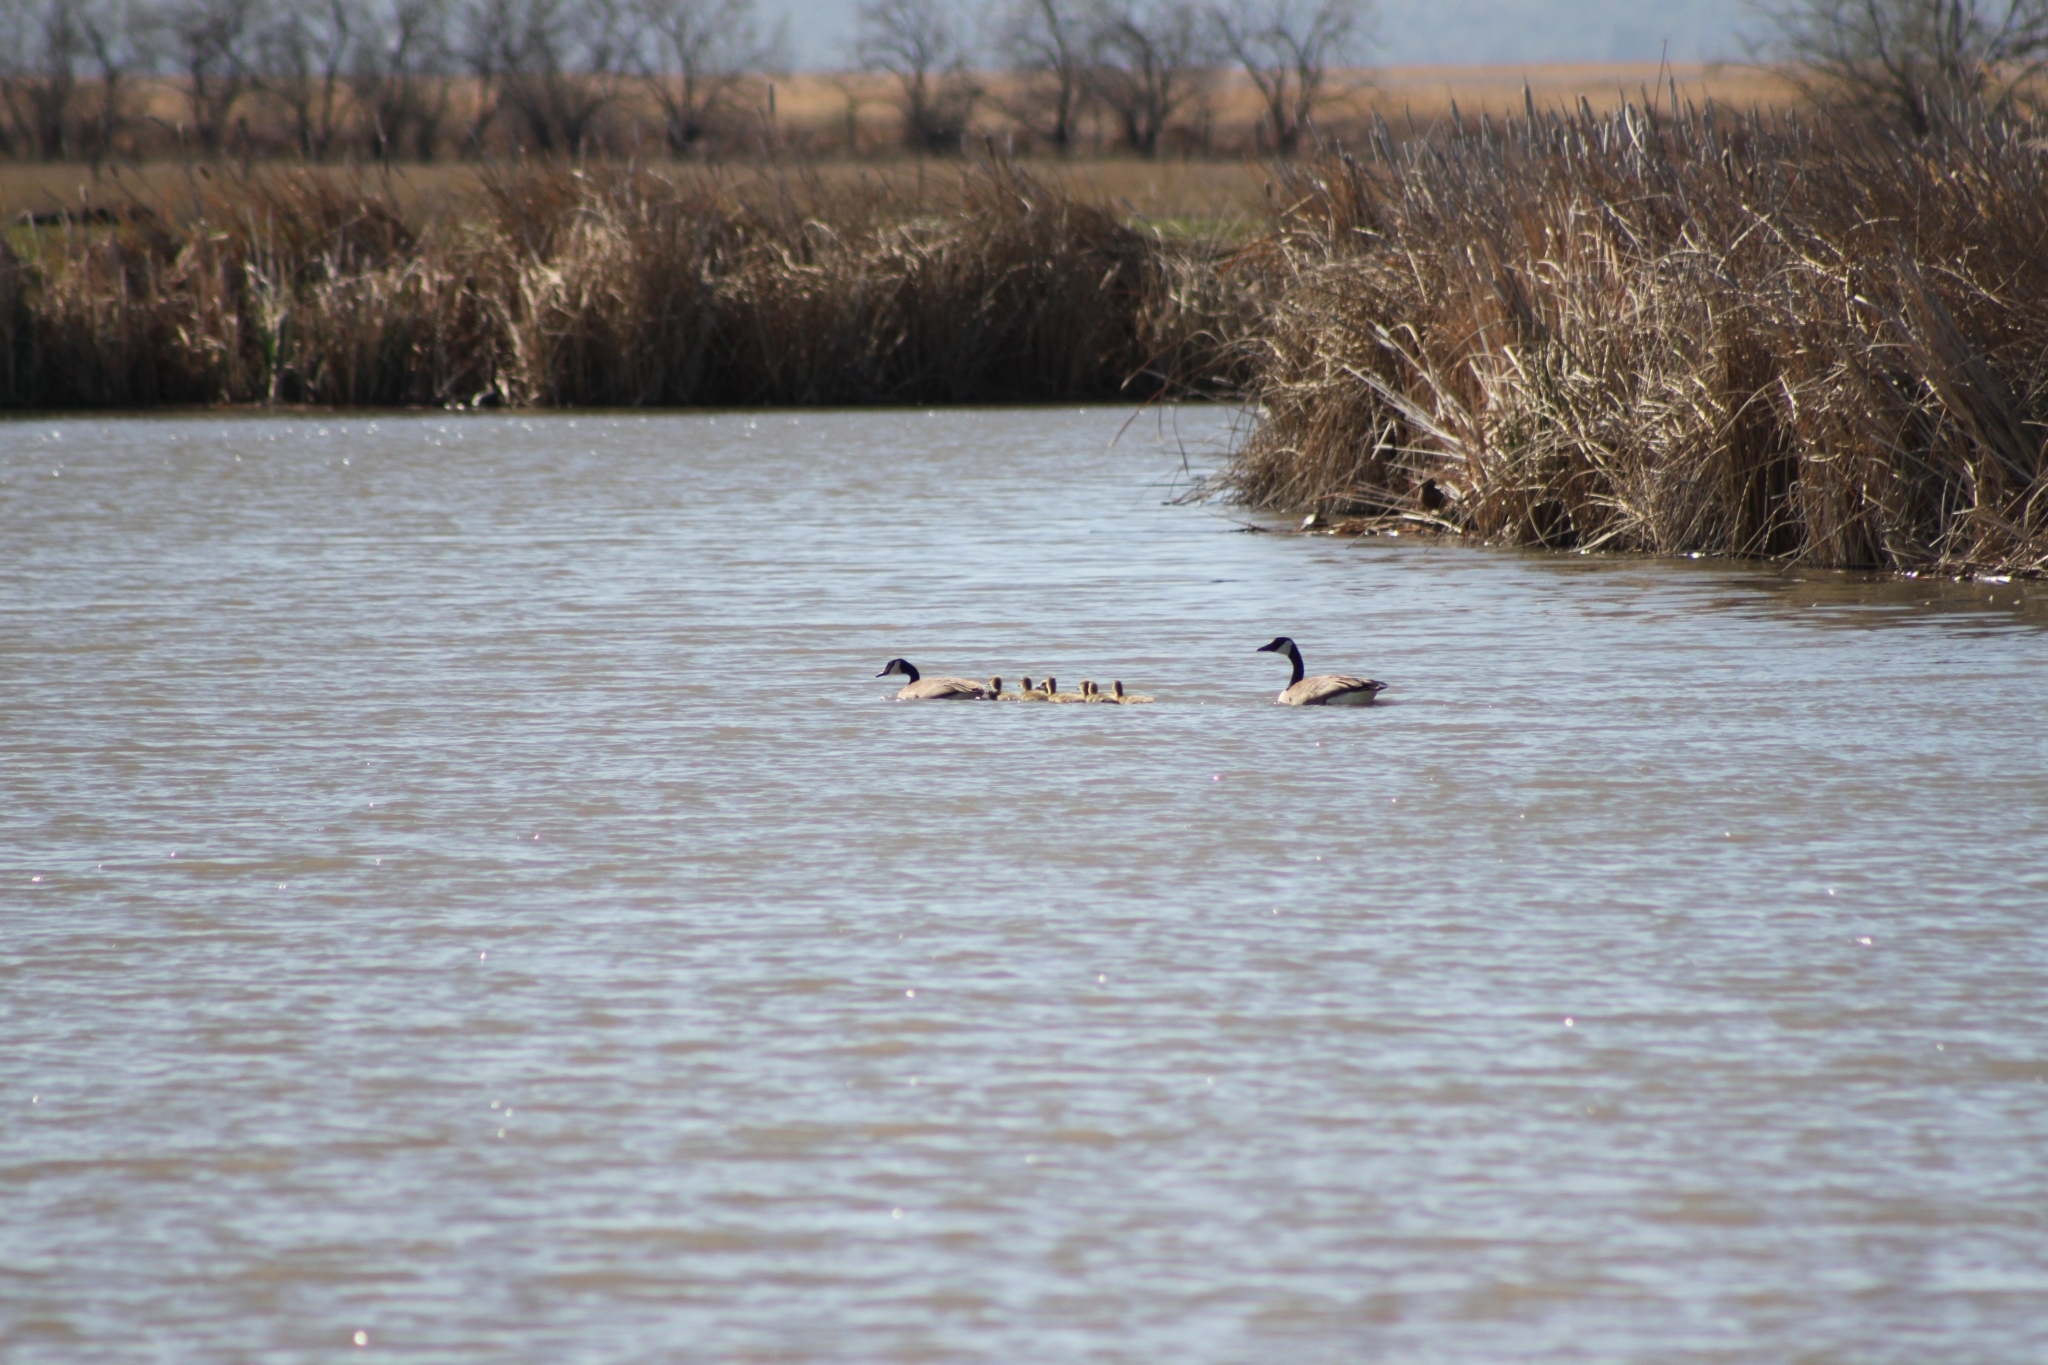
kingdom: Animalia
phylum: Chordata
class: Aves
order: Anseriformes
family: Anatidae
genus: Branta
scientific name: Branta canadensis
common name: Canada goose
